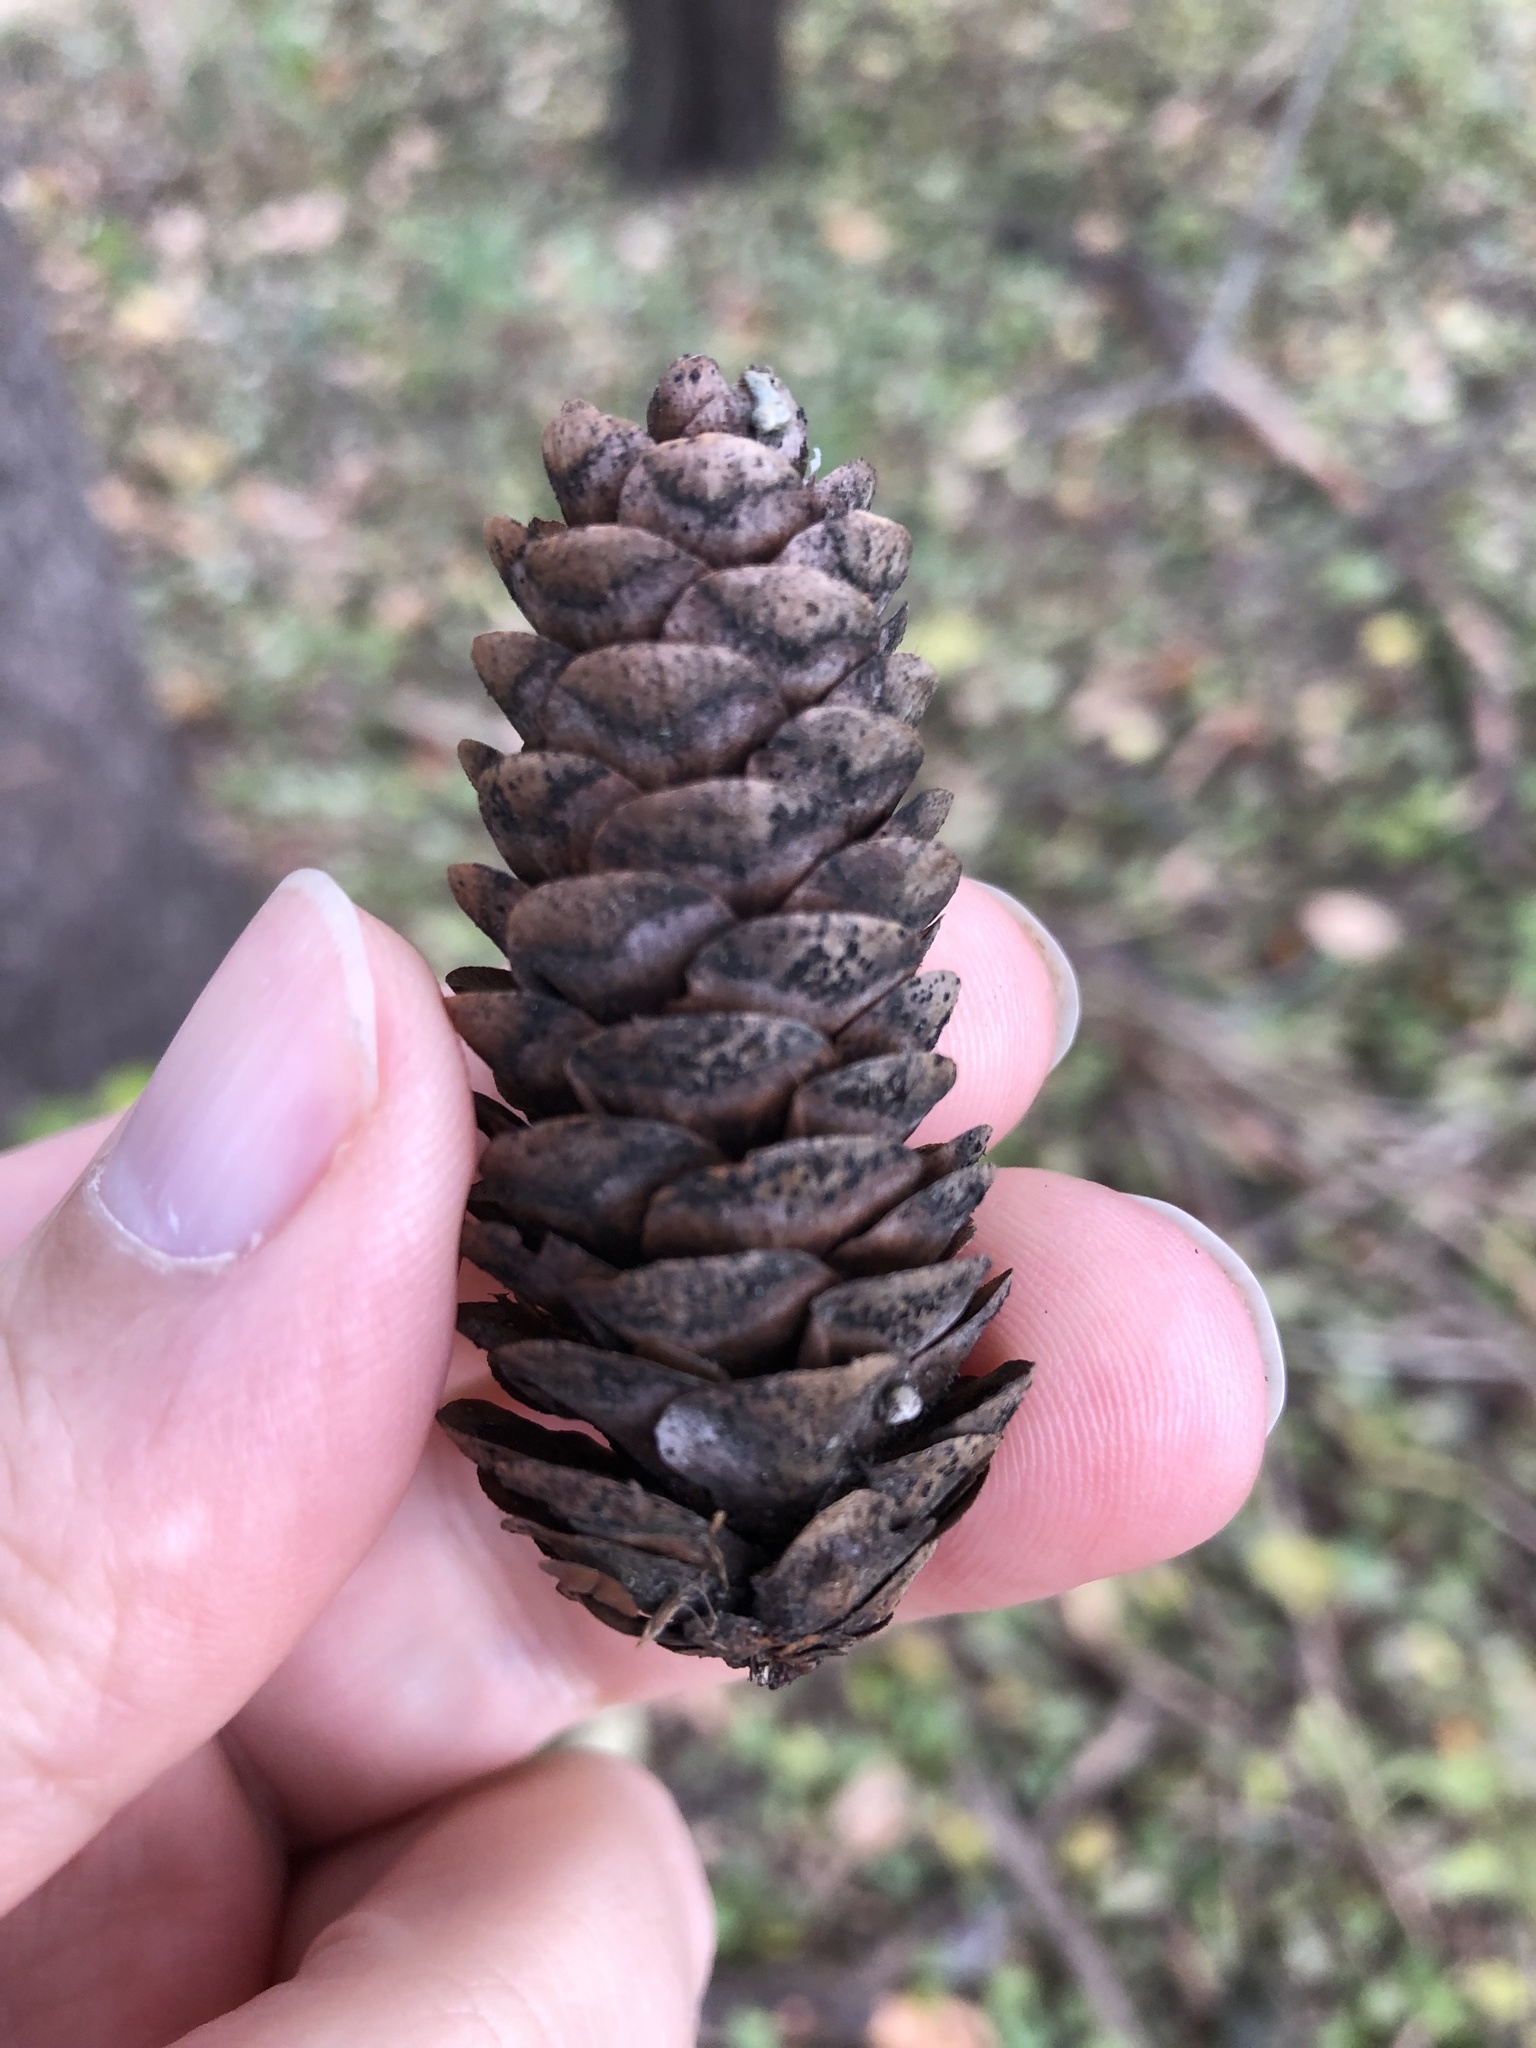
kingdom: Plantae
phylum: Tracheophyta
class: Pinopsida
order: Pinales
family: Pinaceae
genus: Picea
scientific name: Picea glauca
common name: White spruce
